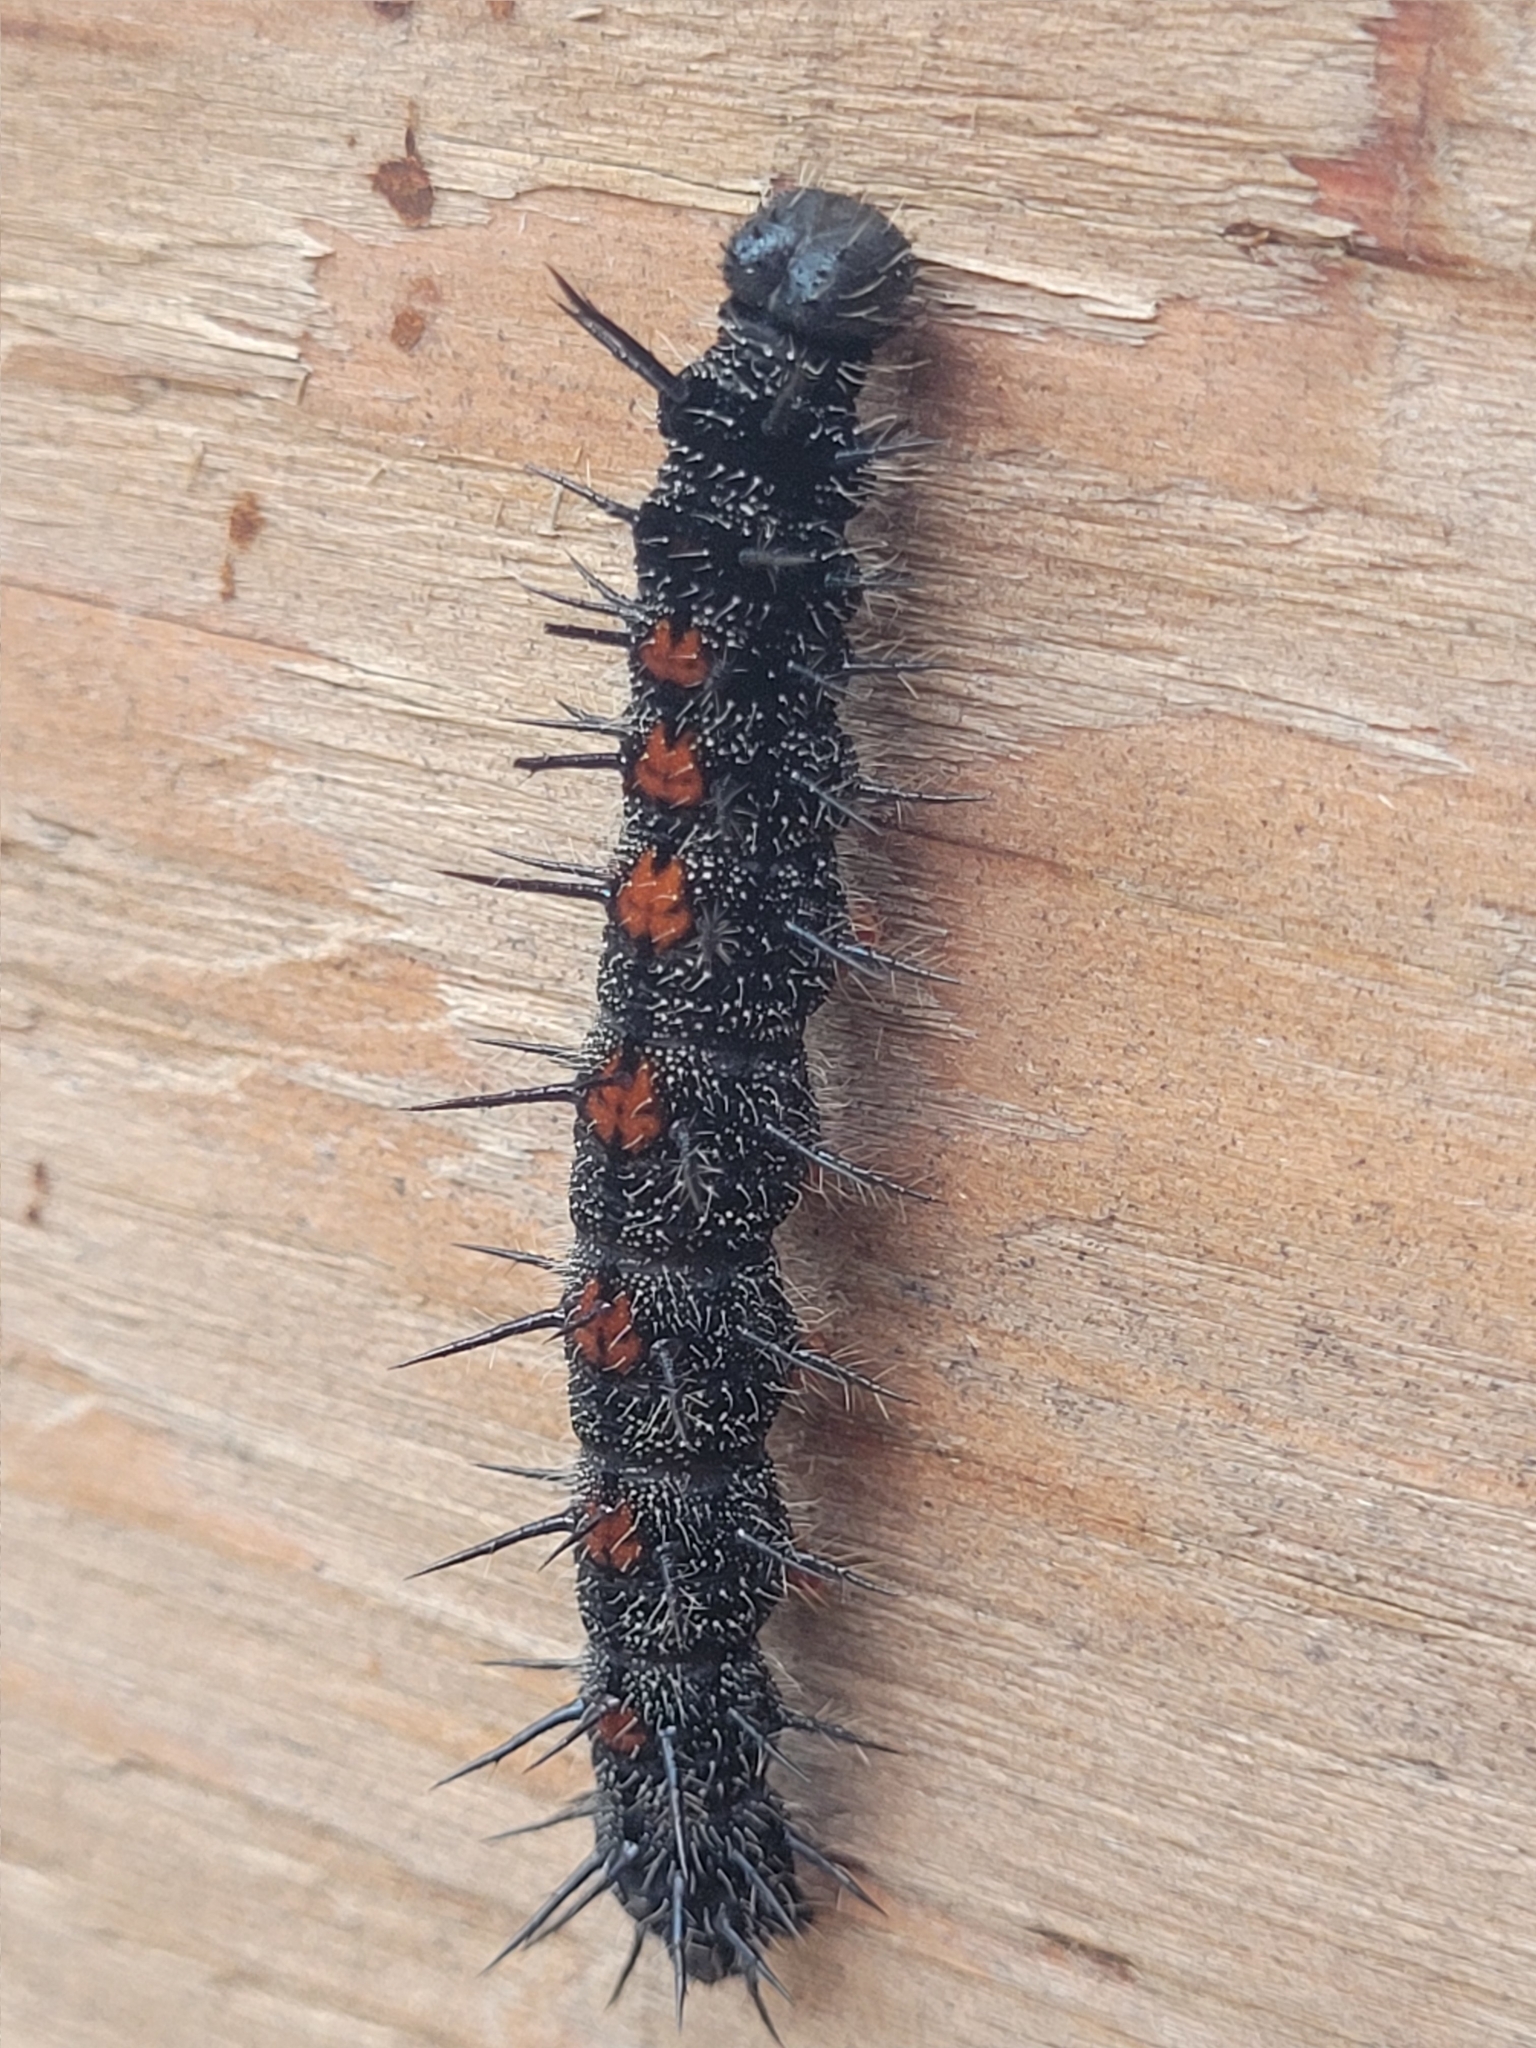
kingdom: Animalia
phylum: Arthropoda
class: Insecta
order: Lepidoptera
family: Nymphalidae
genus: Nymphalis
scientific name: Nymphalis antiopa
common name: Camberwell beauty
